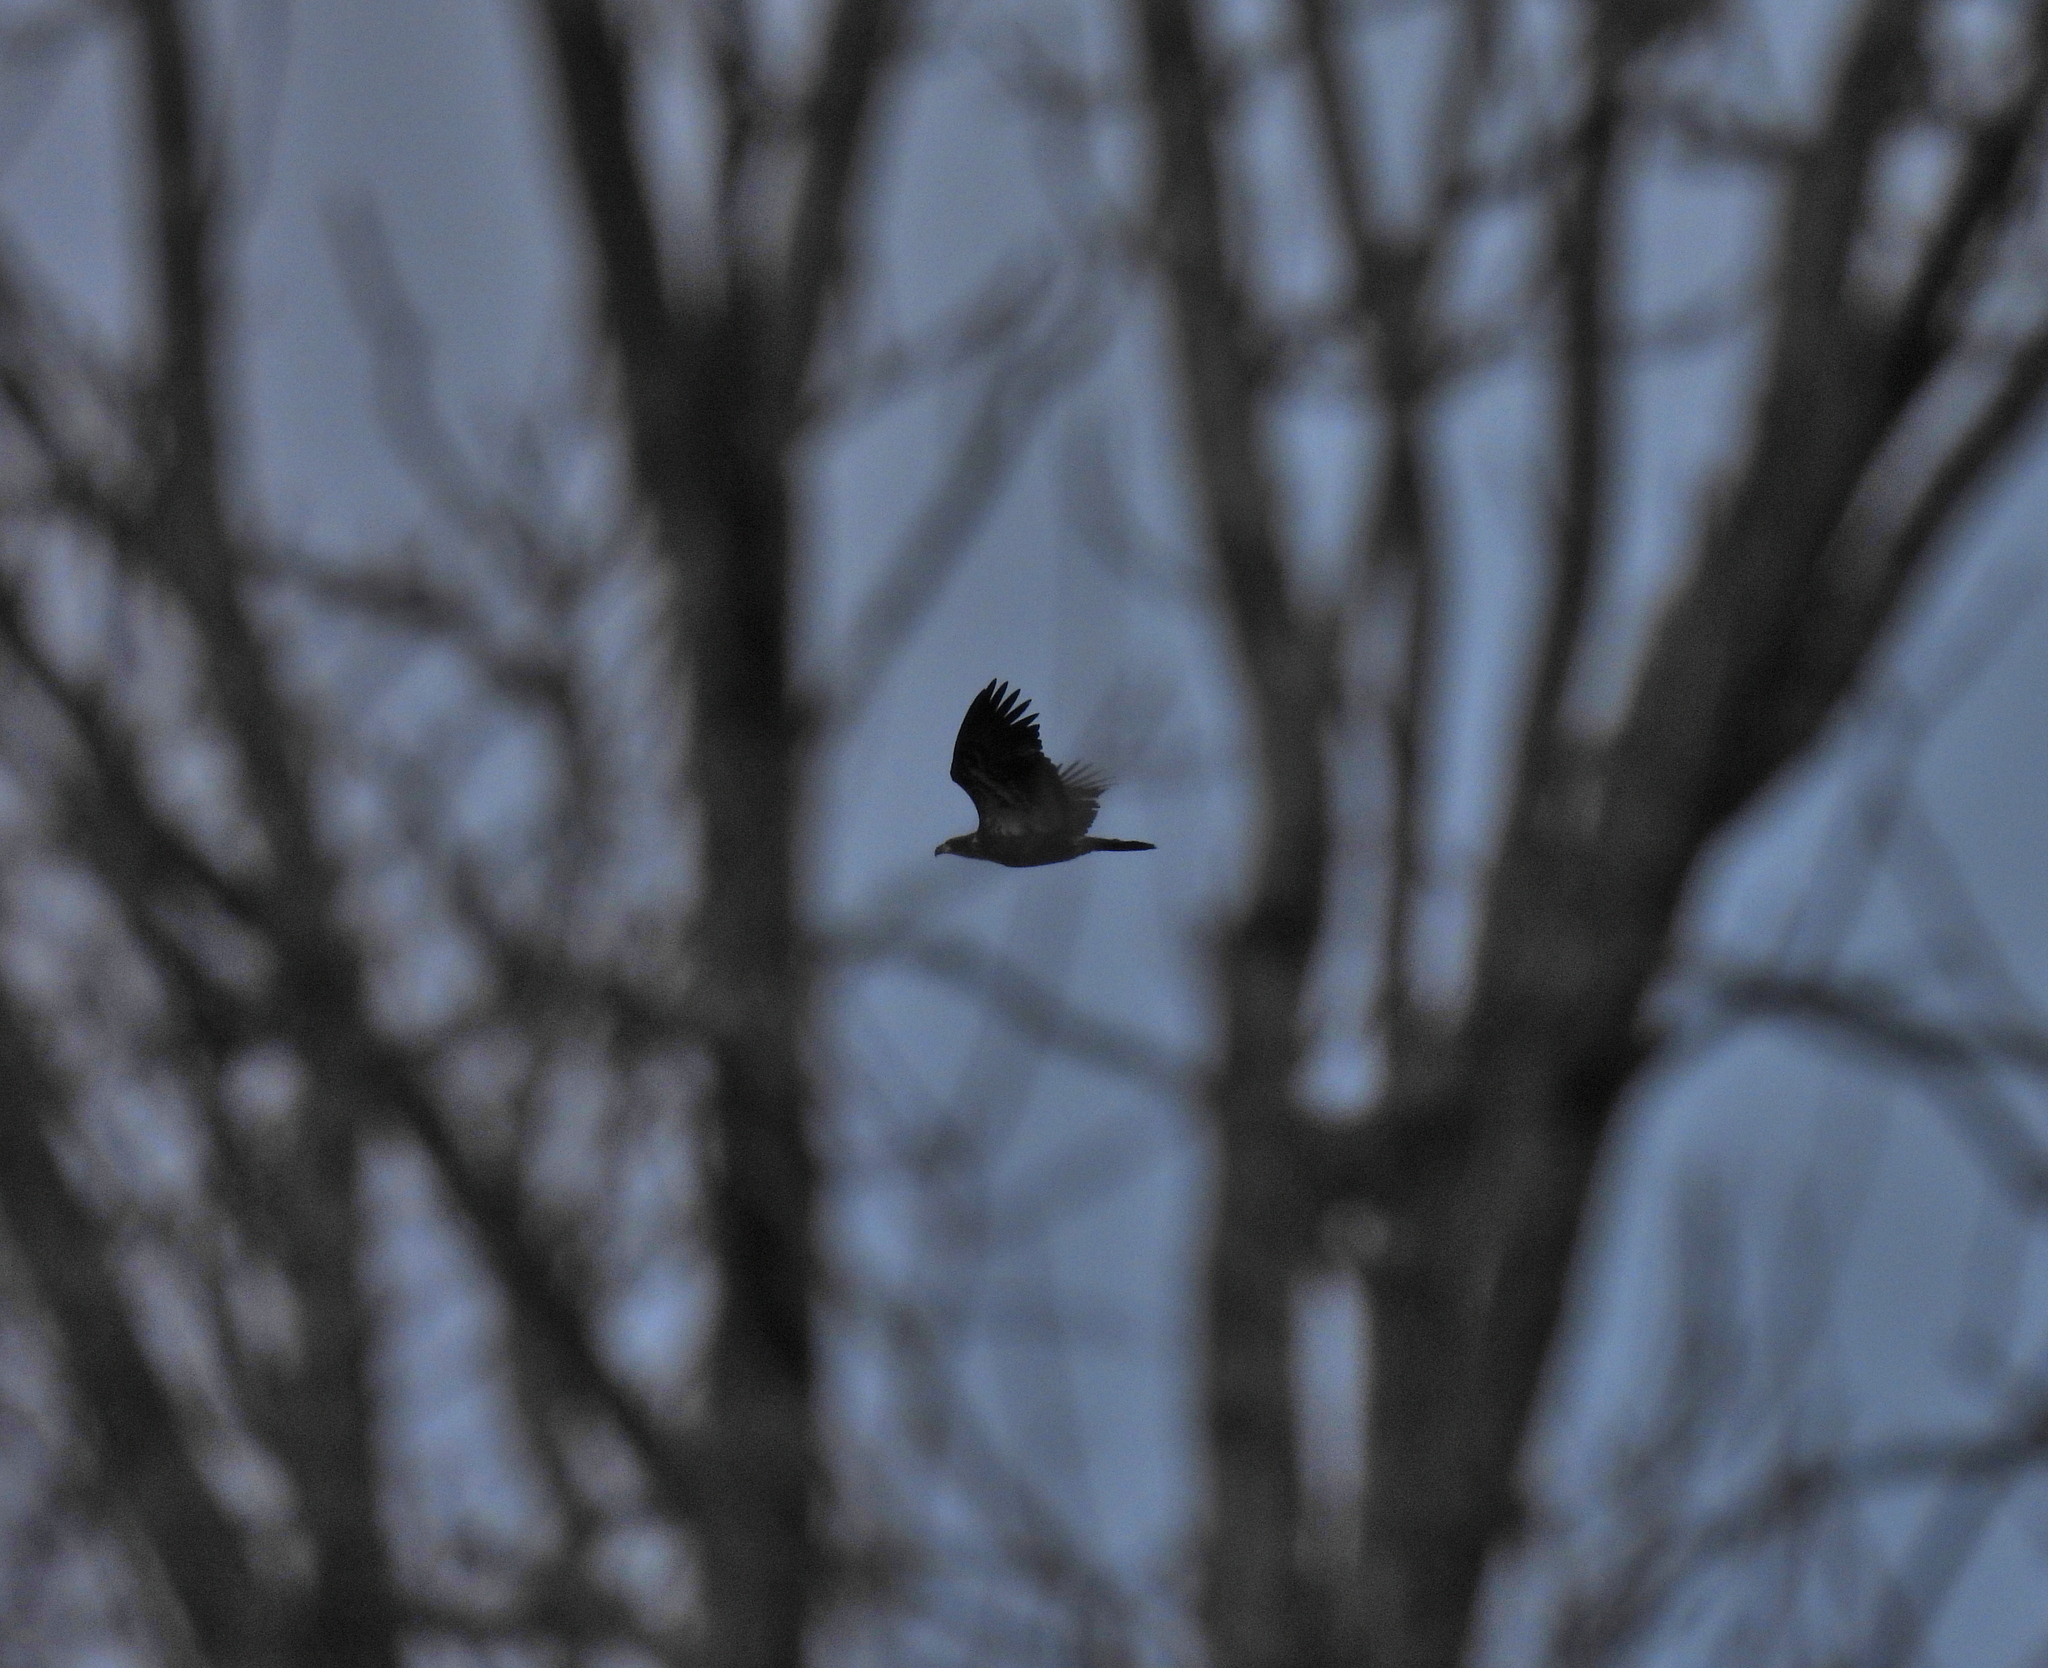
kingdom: Animalia
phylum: Chordata
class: Aves
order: Accipitriformes
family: Accipitridae
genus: Haliaeetus
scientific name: Haliaeetus leucocephalus
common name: Bald eagle
